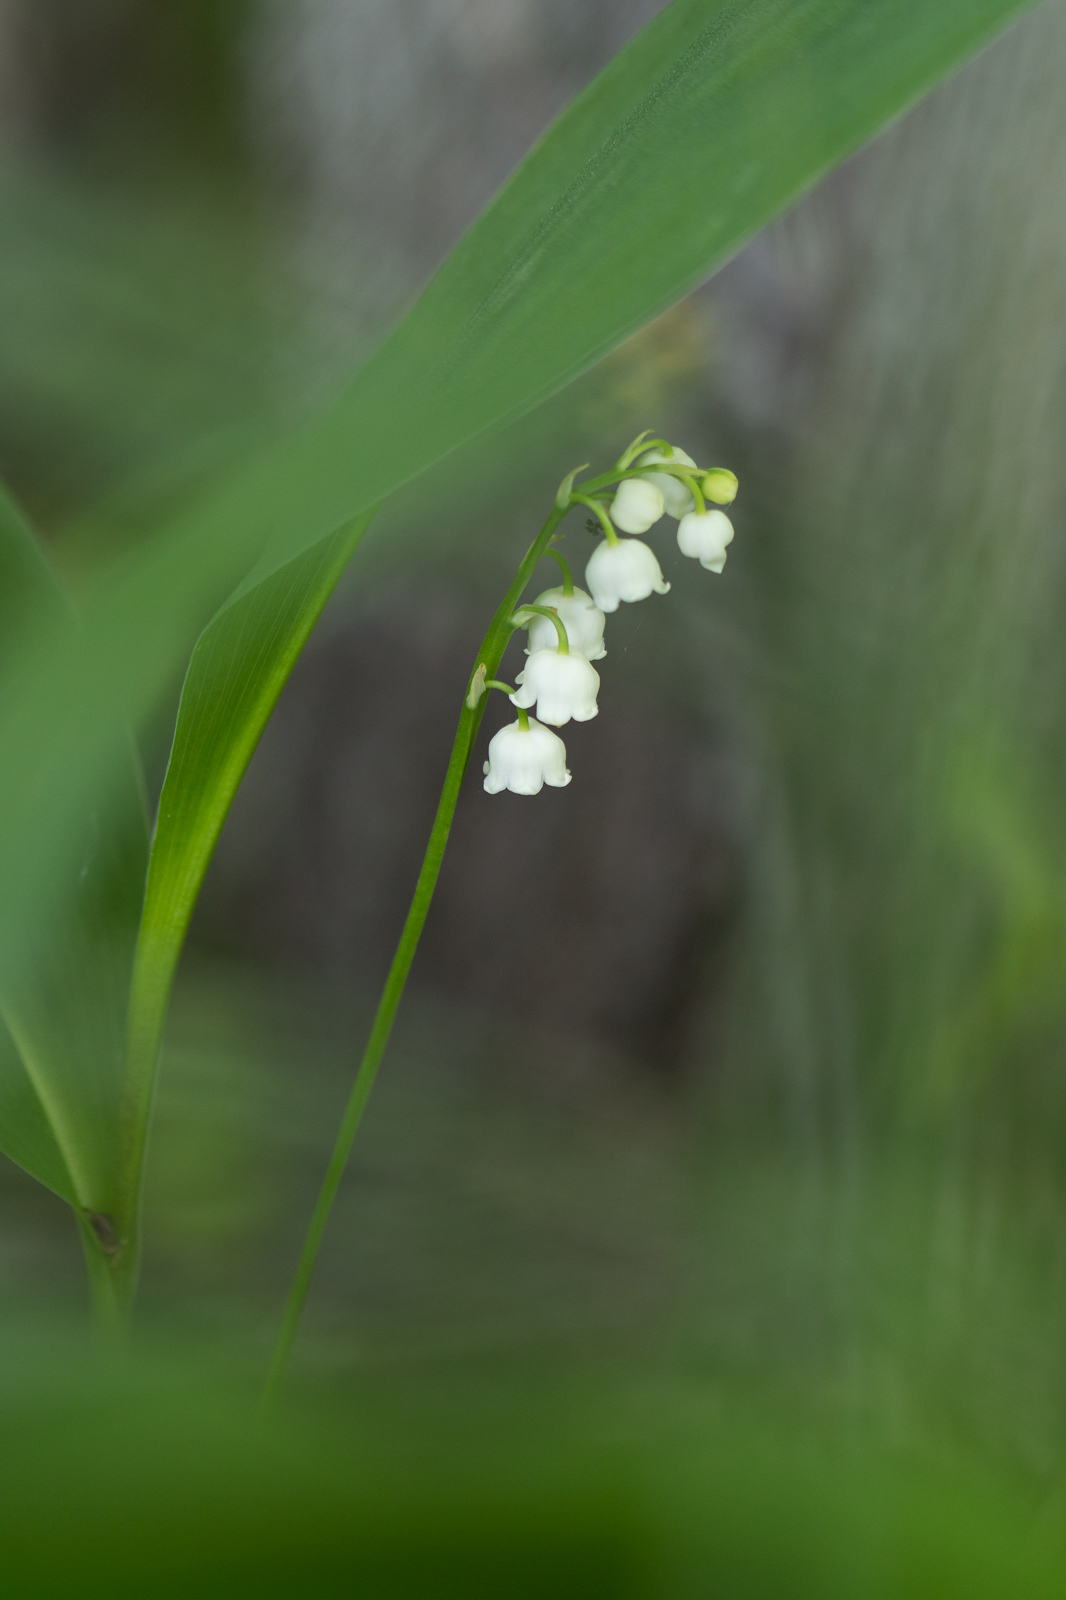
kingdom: Plantae
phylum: Tracheophyta
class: Liliopsida
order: Asparagales
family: Asparagaceae
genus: Convallaria
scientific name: Convallaria majalis
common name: Lily-of-the-valley
